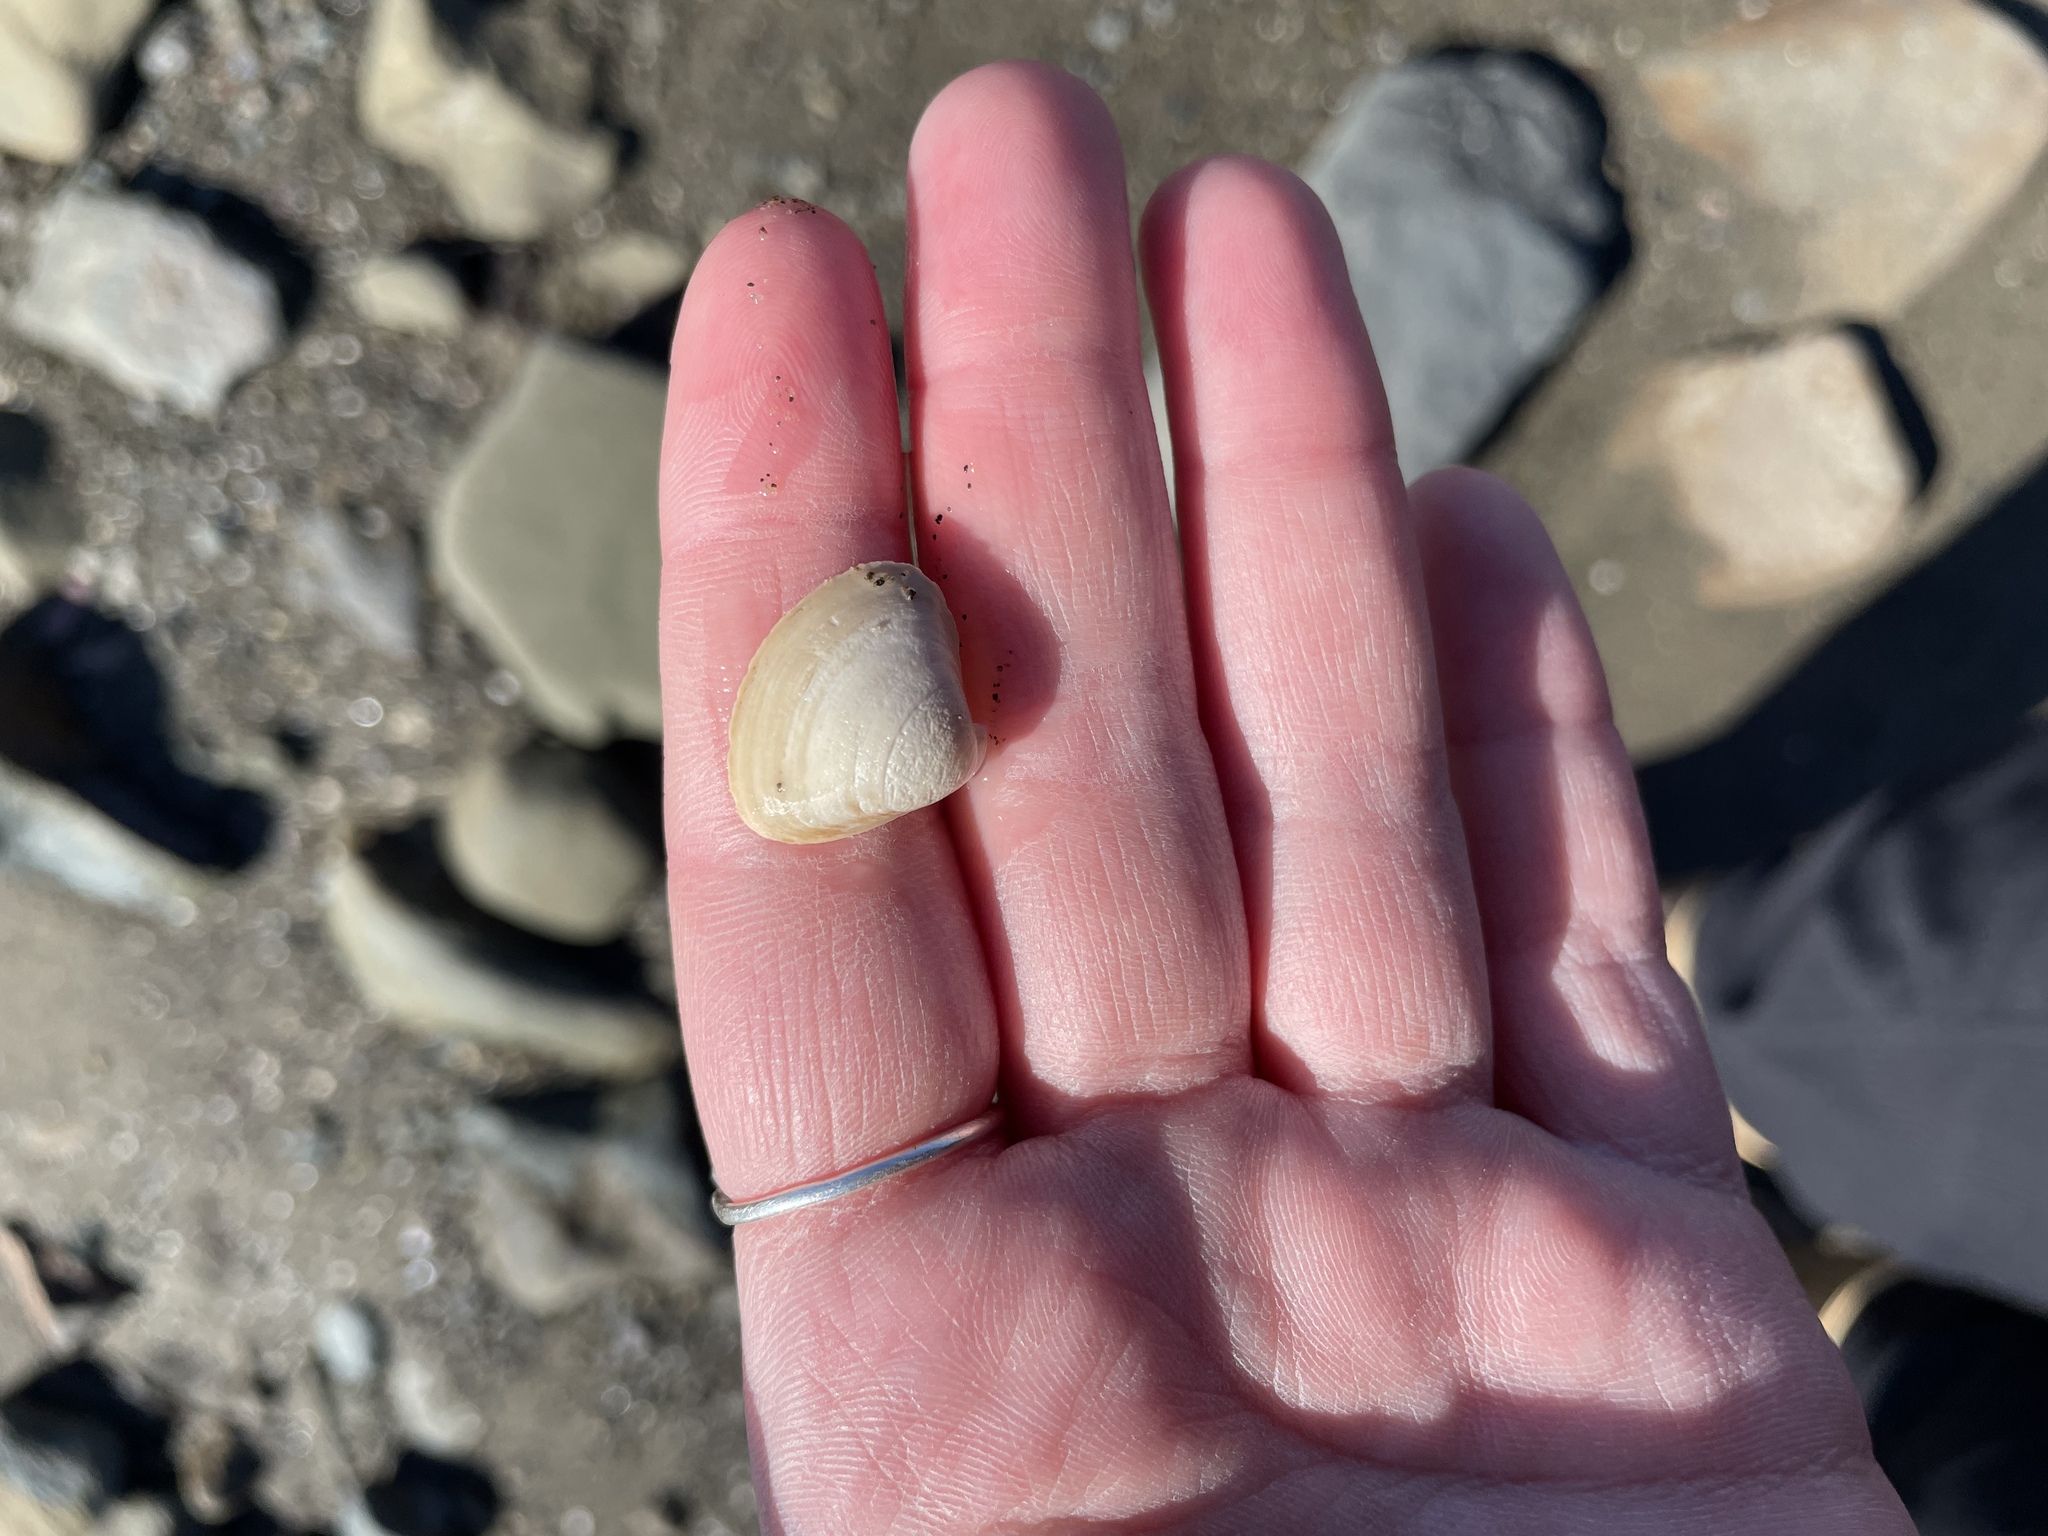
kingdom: Animalia
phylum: Mollusca
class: Bivalvia
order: Venerida
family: Mactridae
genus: Spisula
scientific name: Spisula solidissima
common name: Atlantic surf clam
